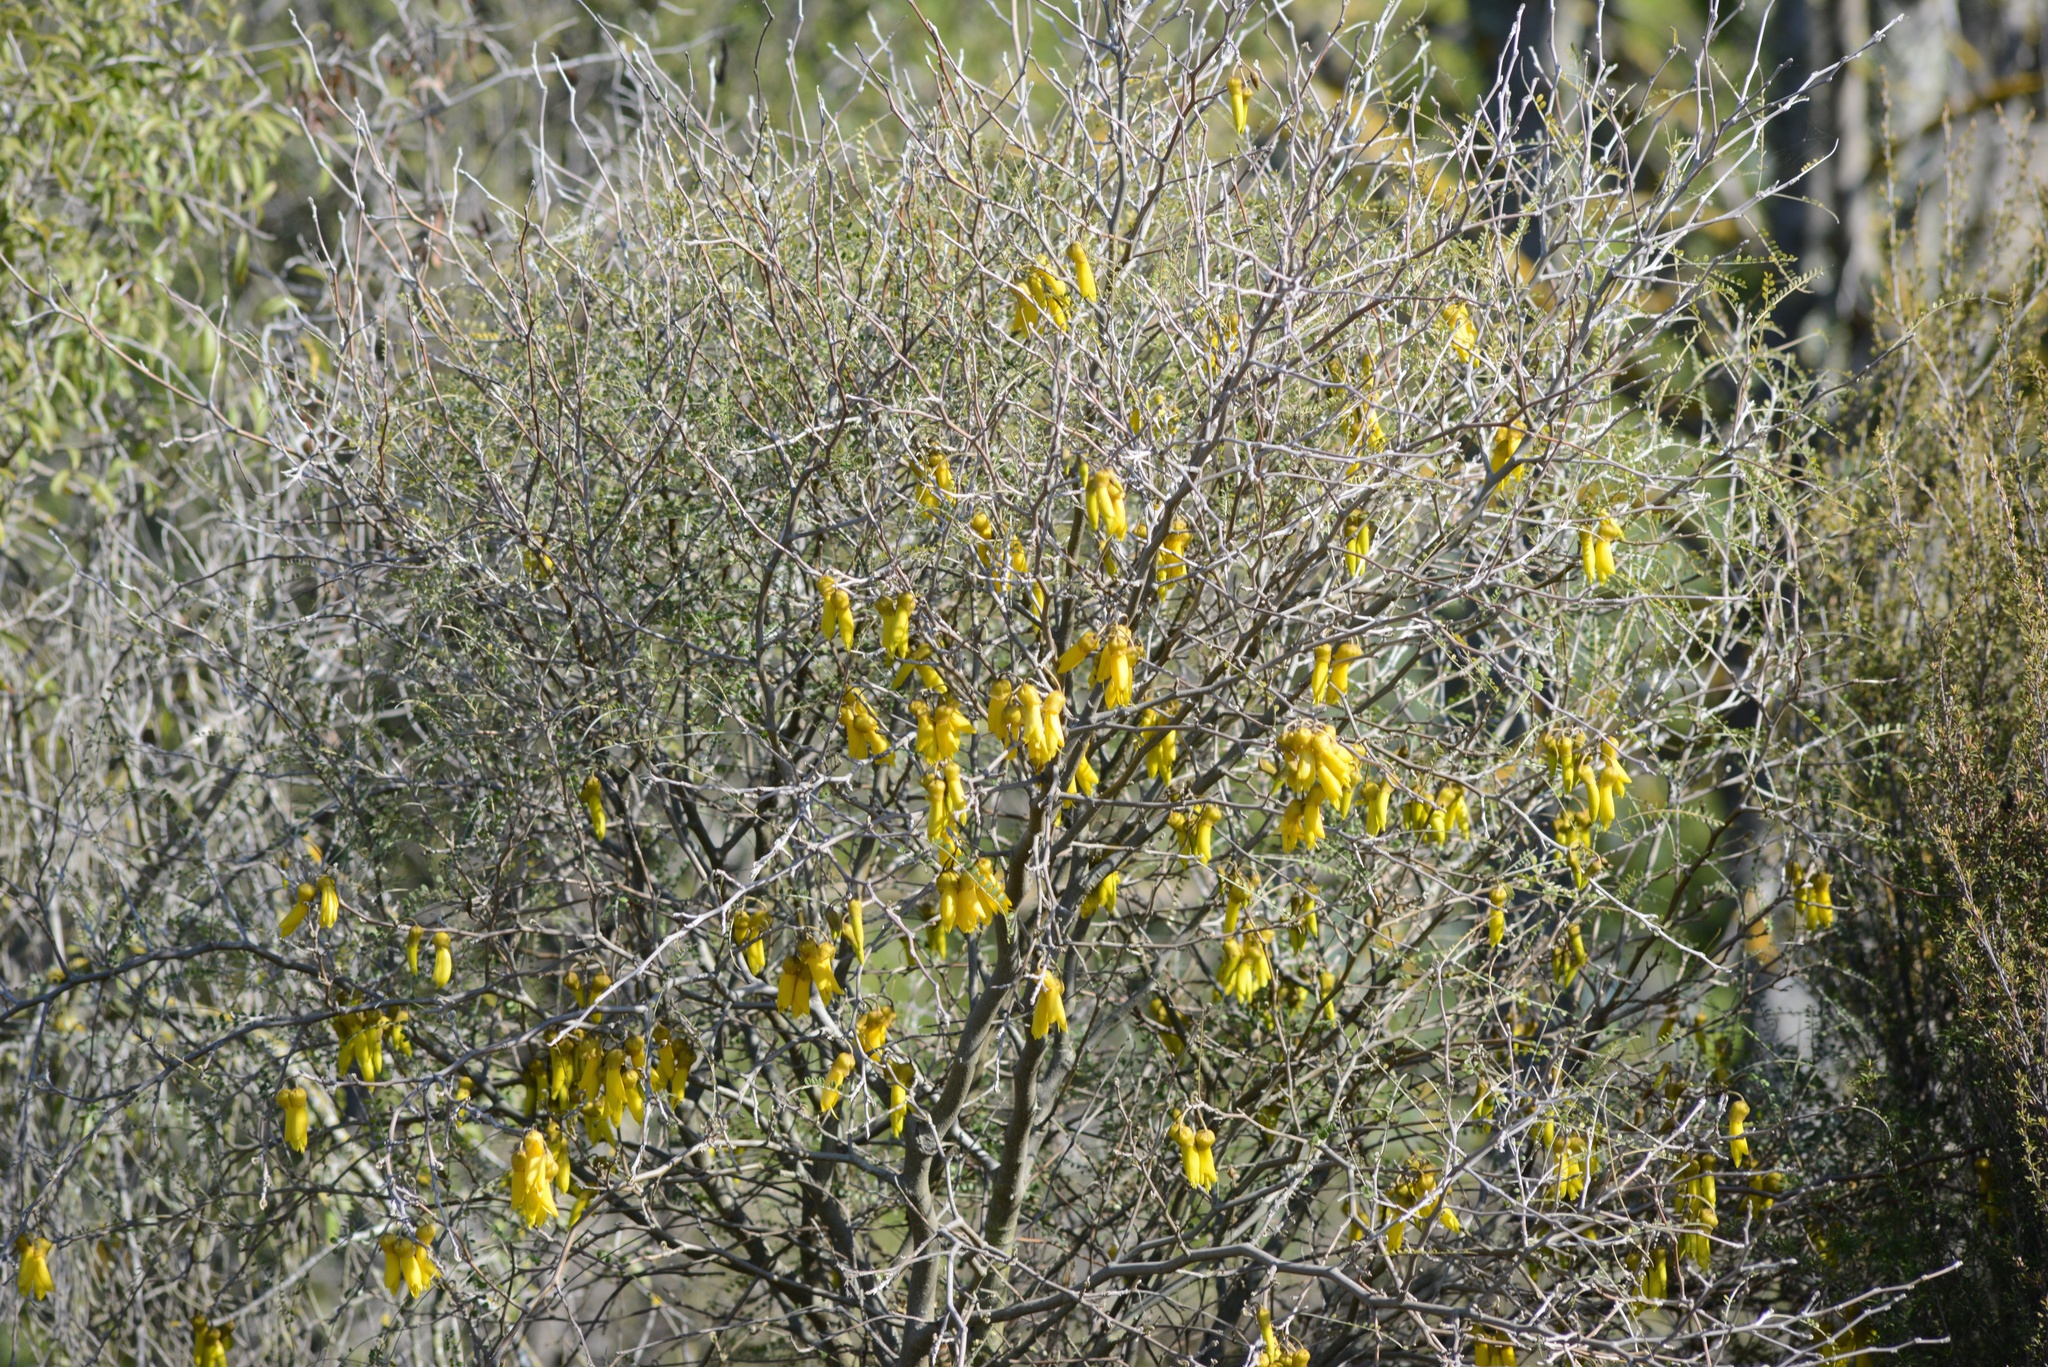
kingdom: Plantae
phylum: Tracheophyta
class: Magnoliopsida
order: Fabales
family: Fabaceae
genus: Sophora
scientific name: Sophora microphylla
